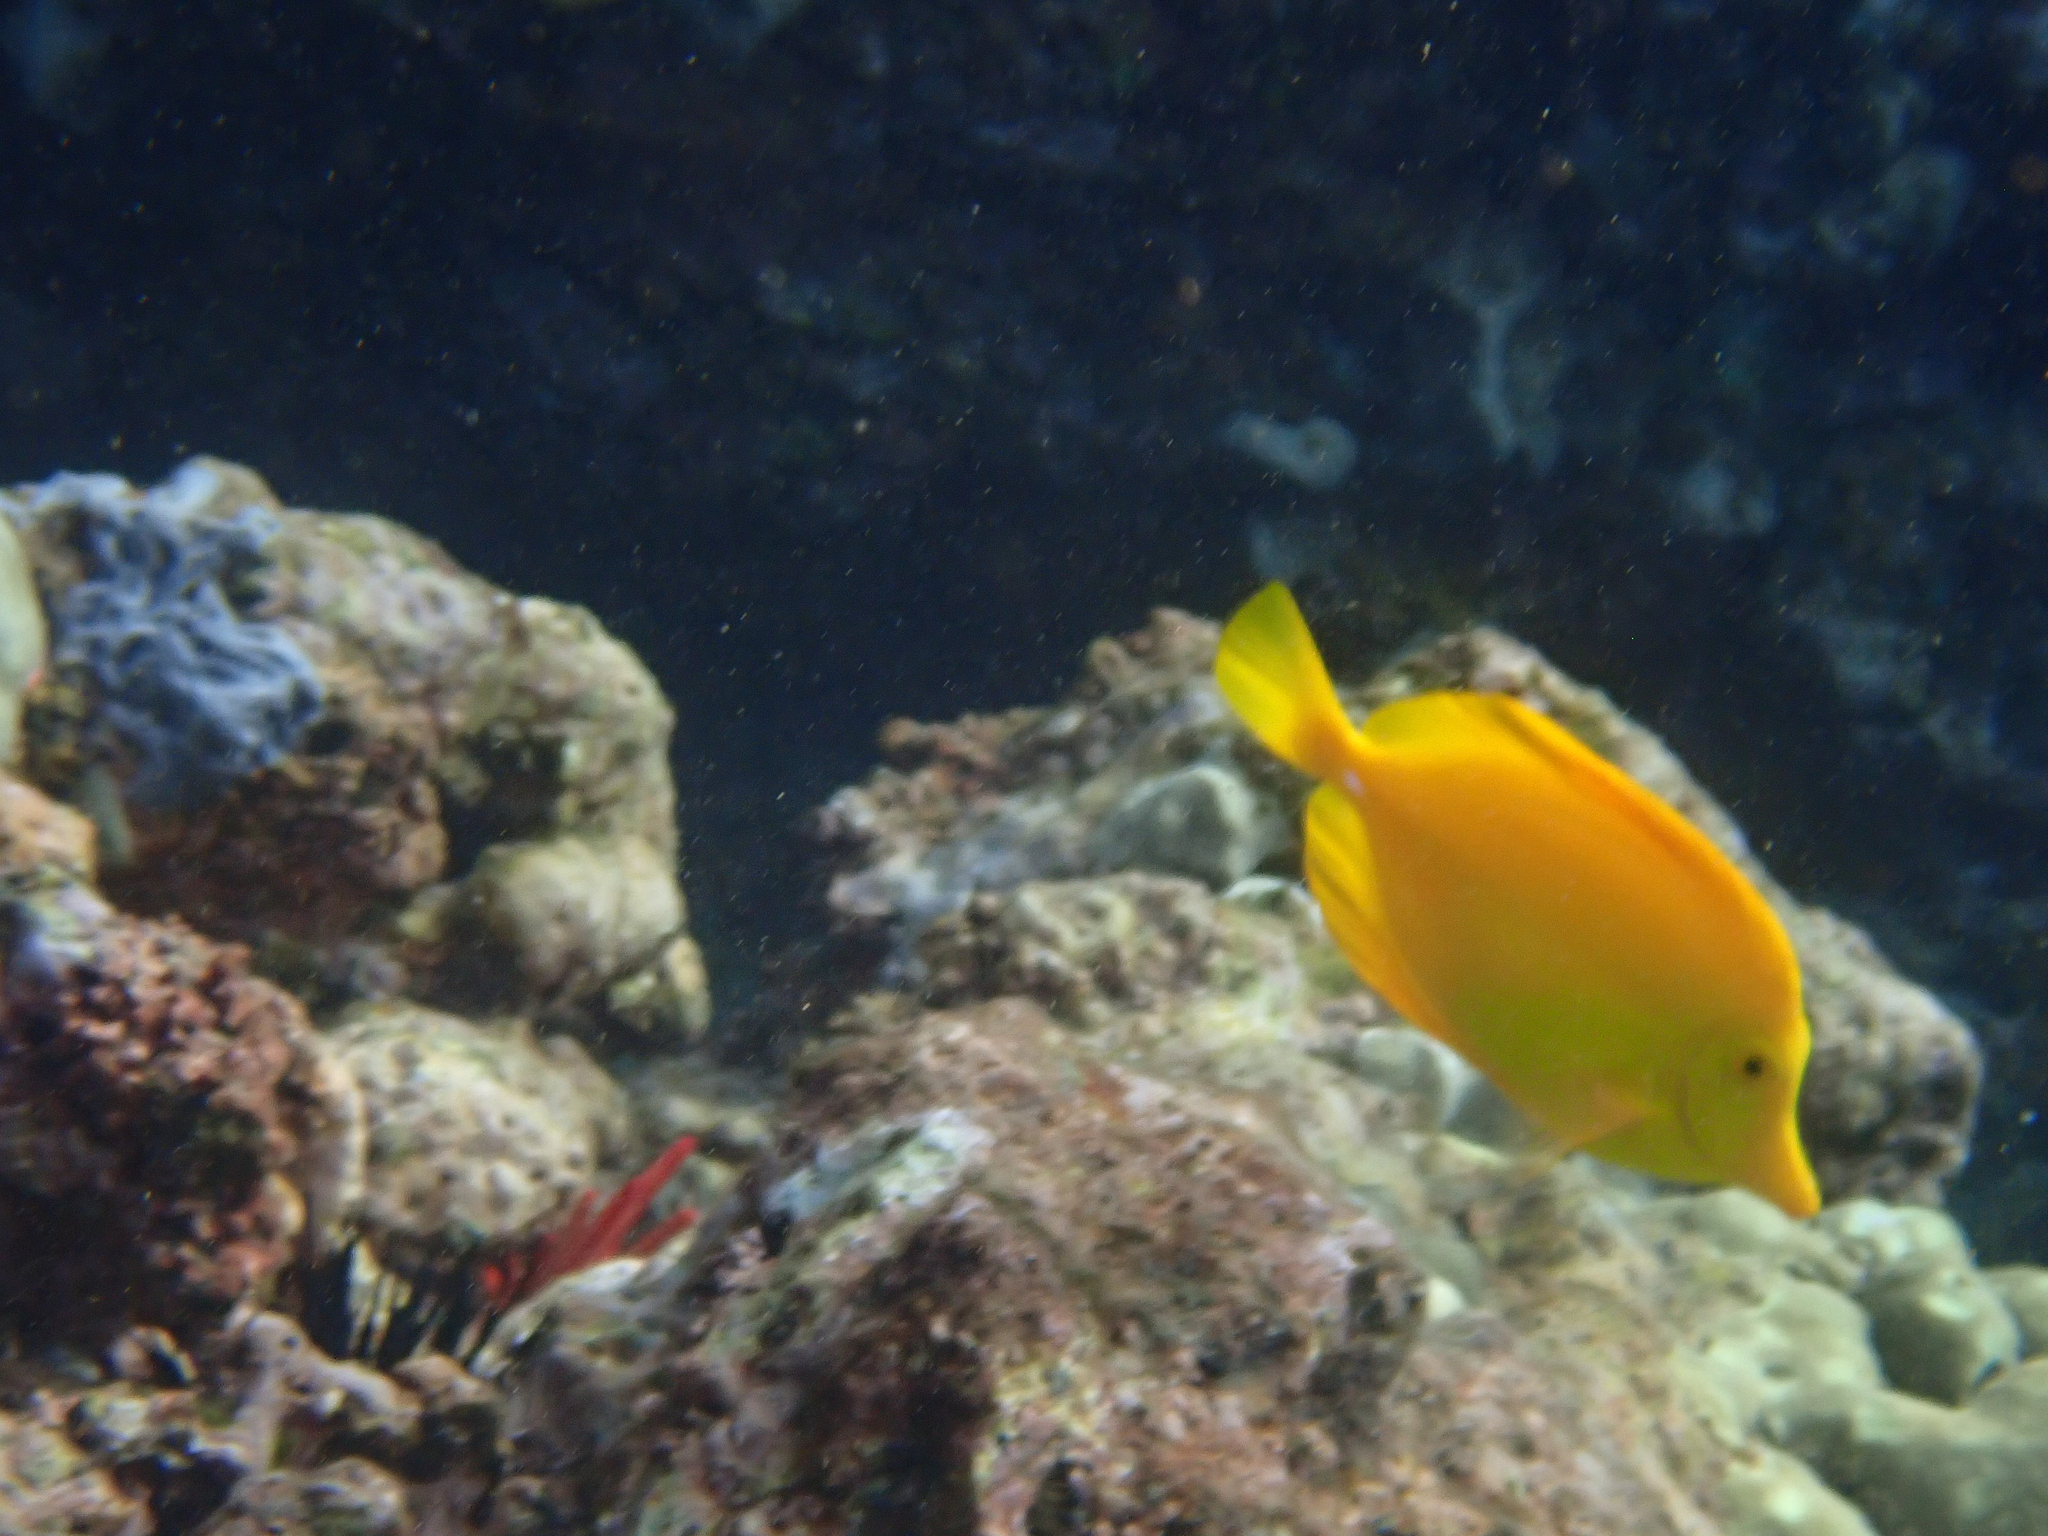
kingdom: Animalia
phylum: Chordata
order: Perciformes
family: Acanthuridae
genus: Zebrasoma
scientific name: Zebrasoma flavescens
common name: Yellow tang
